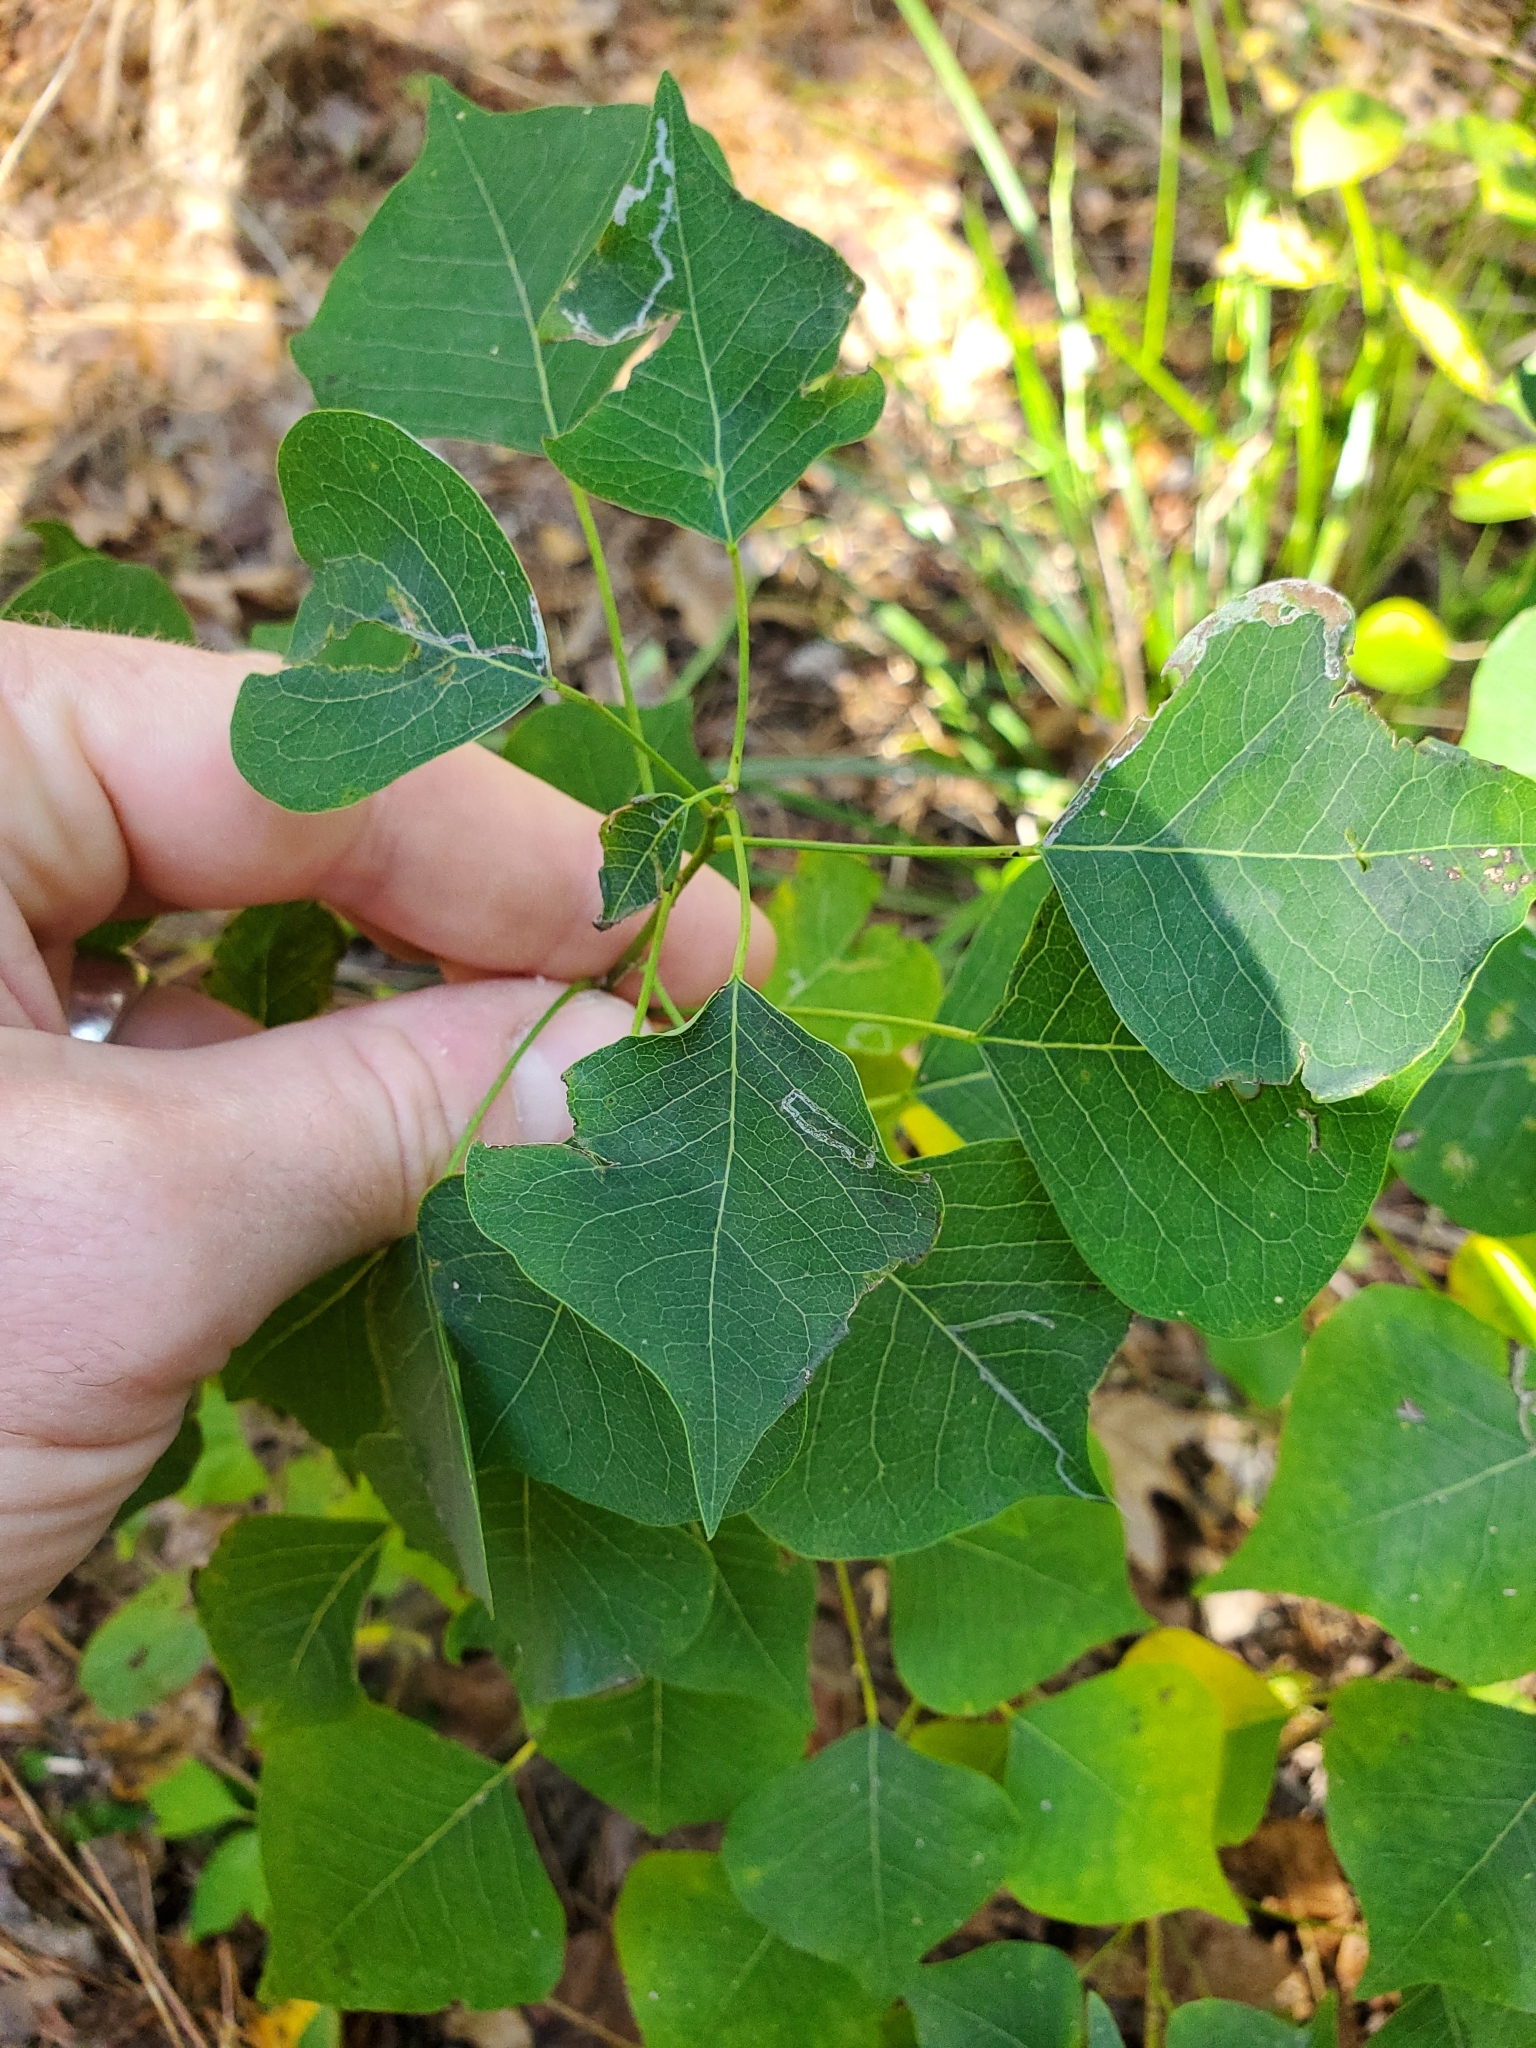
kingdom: Animalia
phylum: Arthropoda
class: Insecta
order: Lepidoptera
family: Gracillariidae
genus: Caloptilia
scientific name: Caloptilia triadicae
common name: Tallow leaf roller
